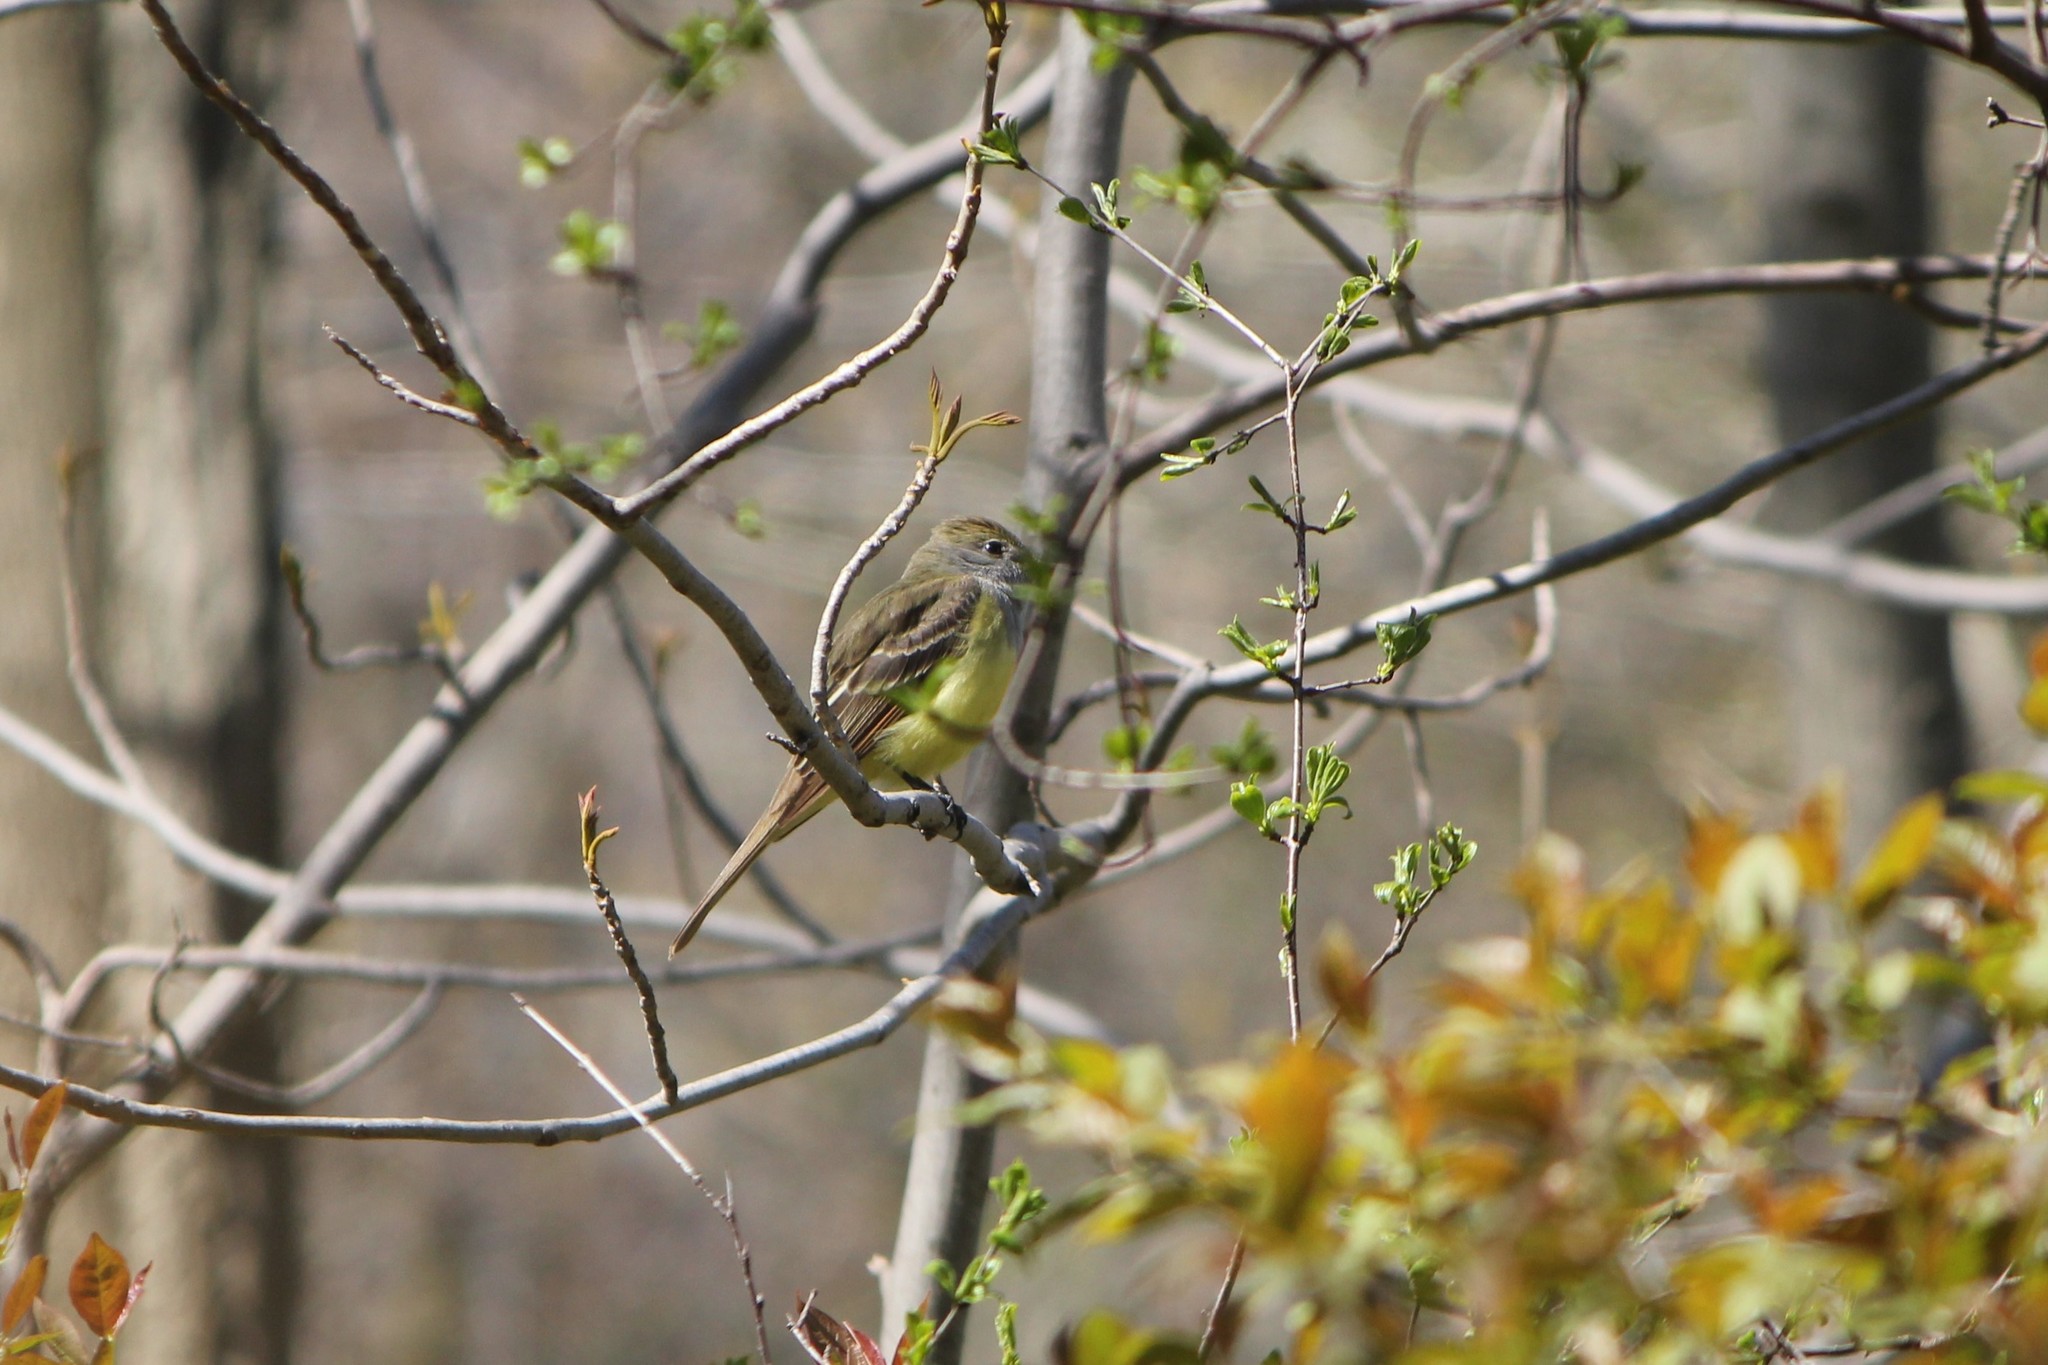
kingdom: Animalia
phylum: Chordata
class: Aves
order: Passeriformes
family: Tyrannidae
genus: Myiarchus
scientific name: Myiarchus crinitus
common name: Great crested flycatcher
